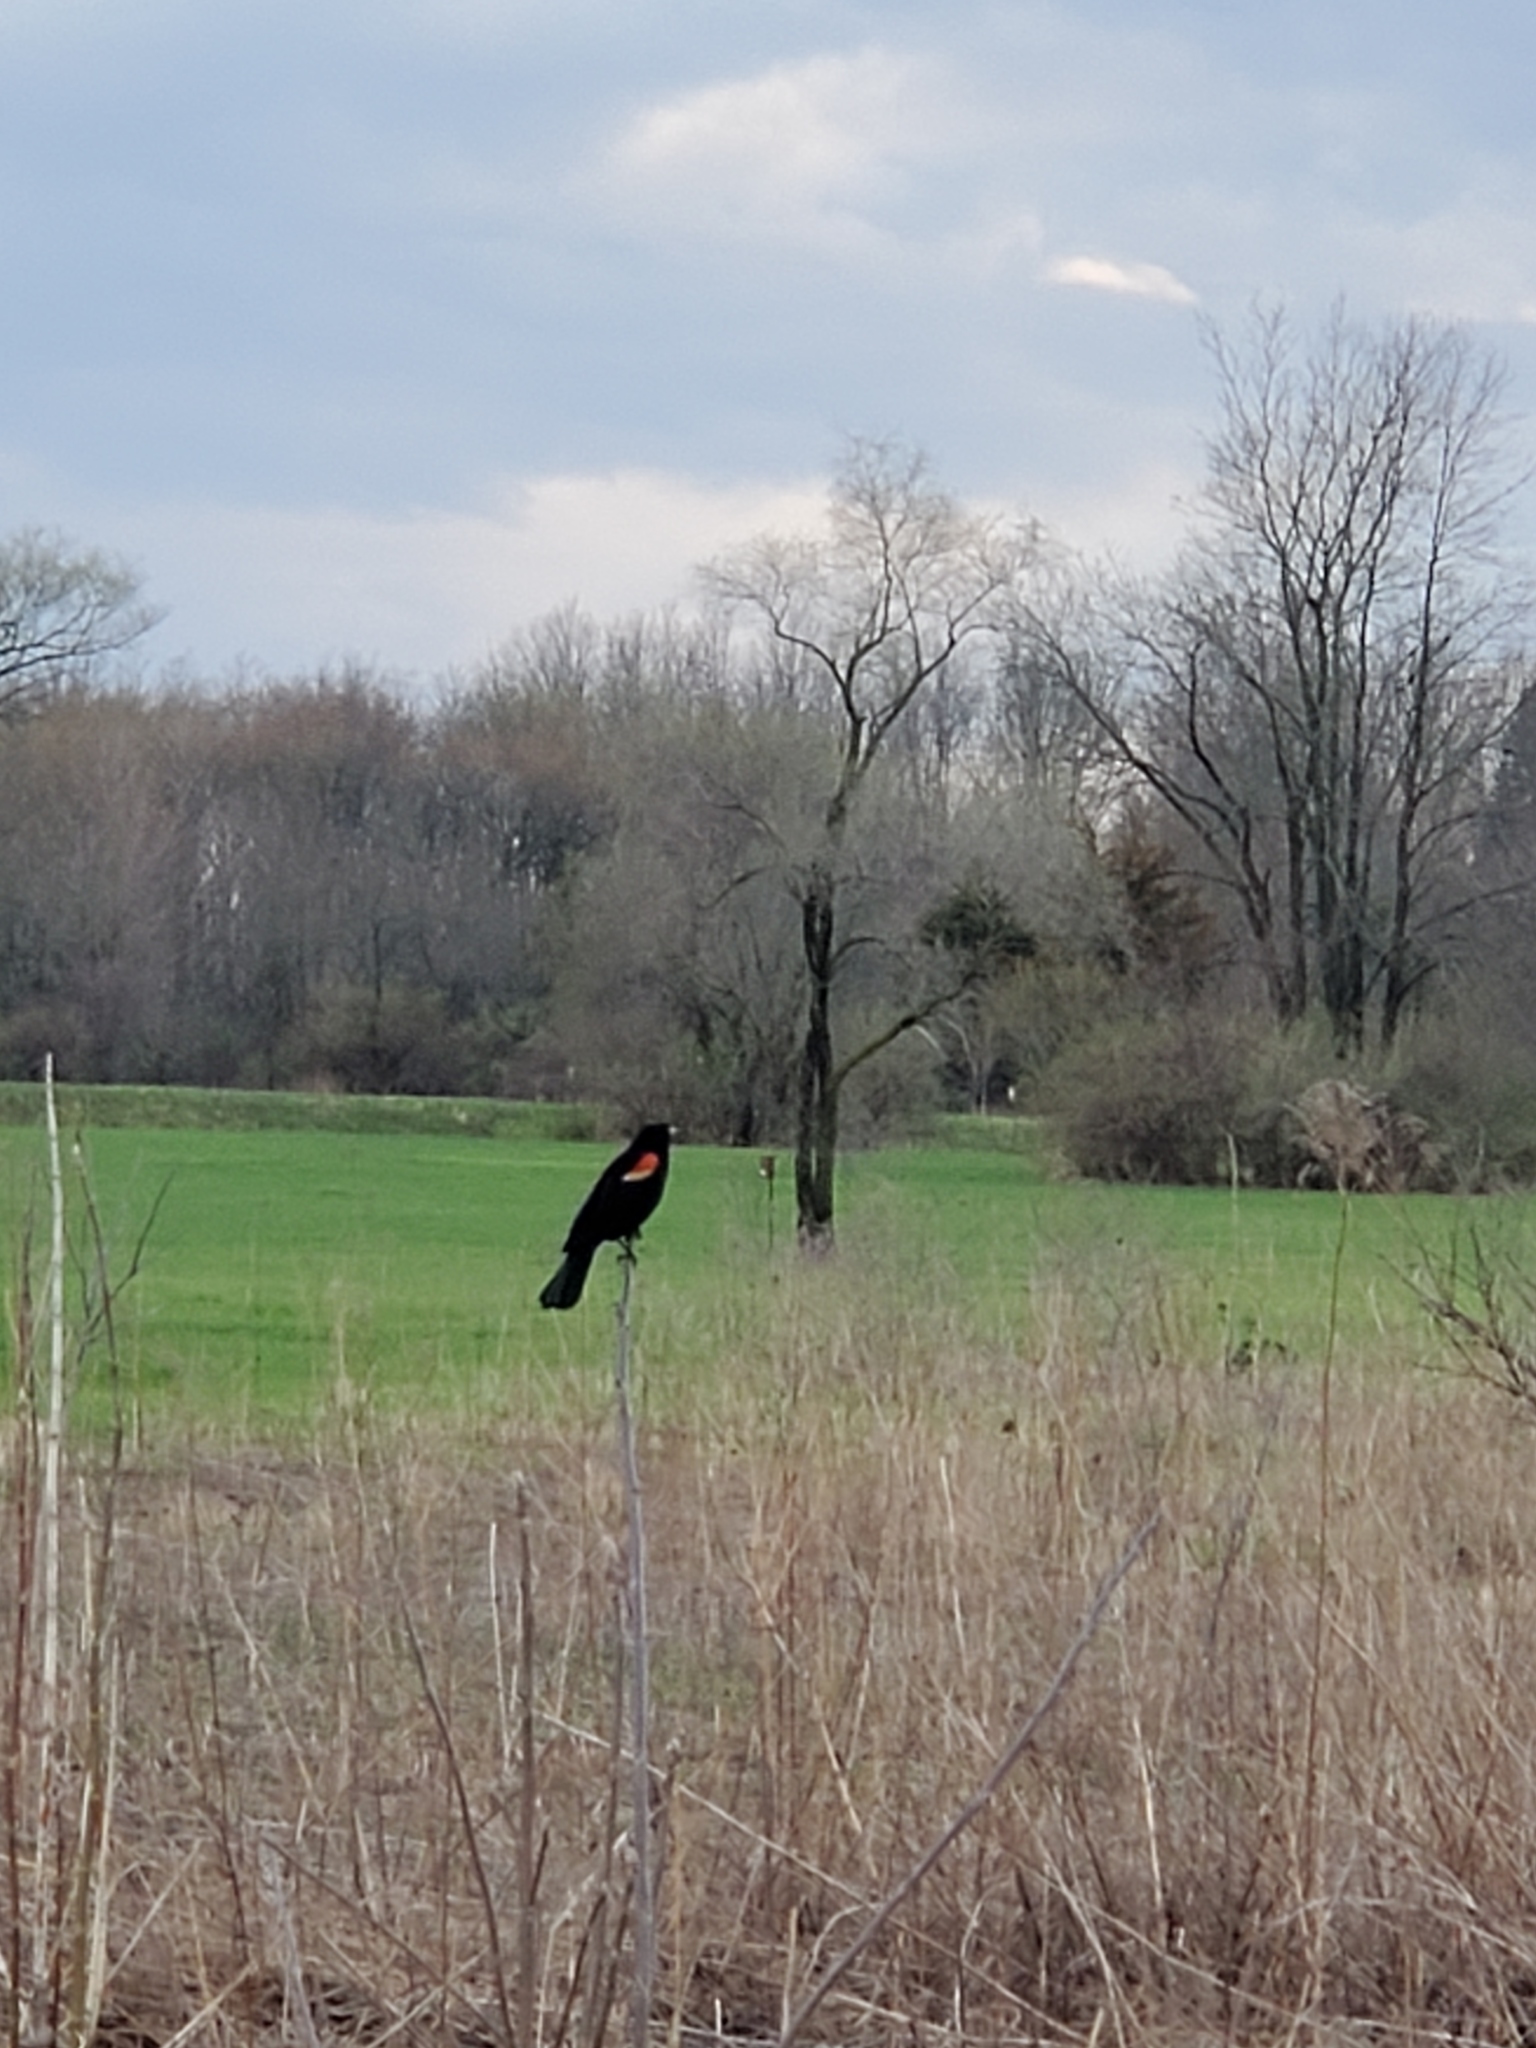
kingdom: Animalia
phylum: Chordata
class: Aves
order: Passeriformes
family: Icteridae
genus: Agelaius
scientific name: Agelaius phoeniceus
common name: Red-winged blackbird
